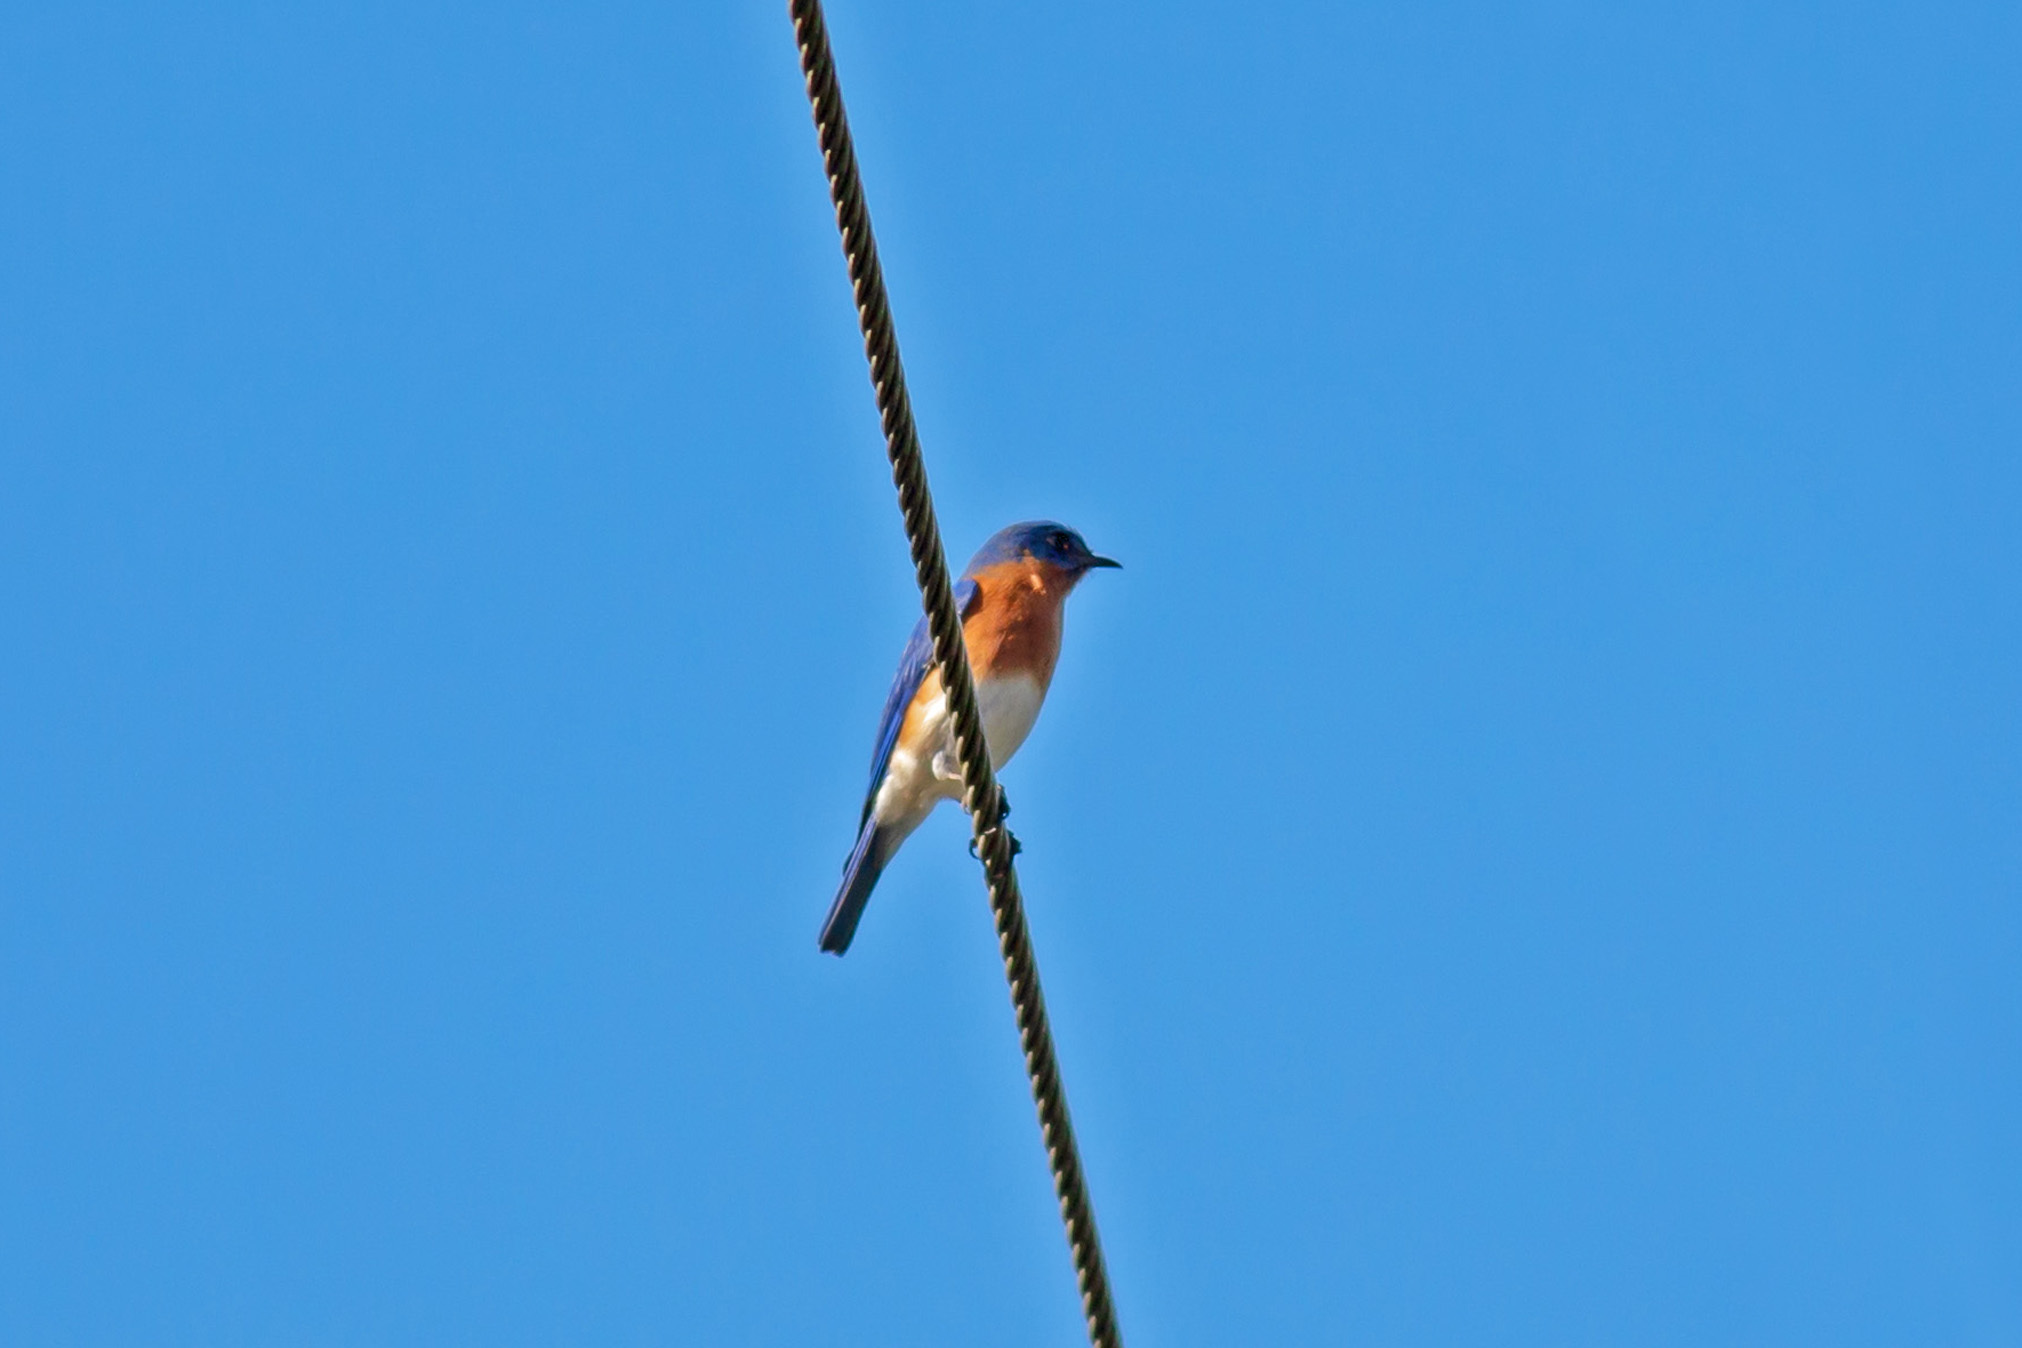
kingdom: Animalia
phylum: Chordata
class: Aves
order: Passeriformes
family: Turdidae
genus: Sialia
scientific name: Sialia sialis
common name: Eastern bluebird
